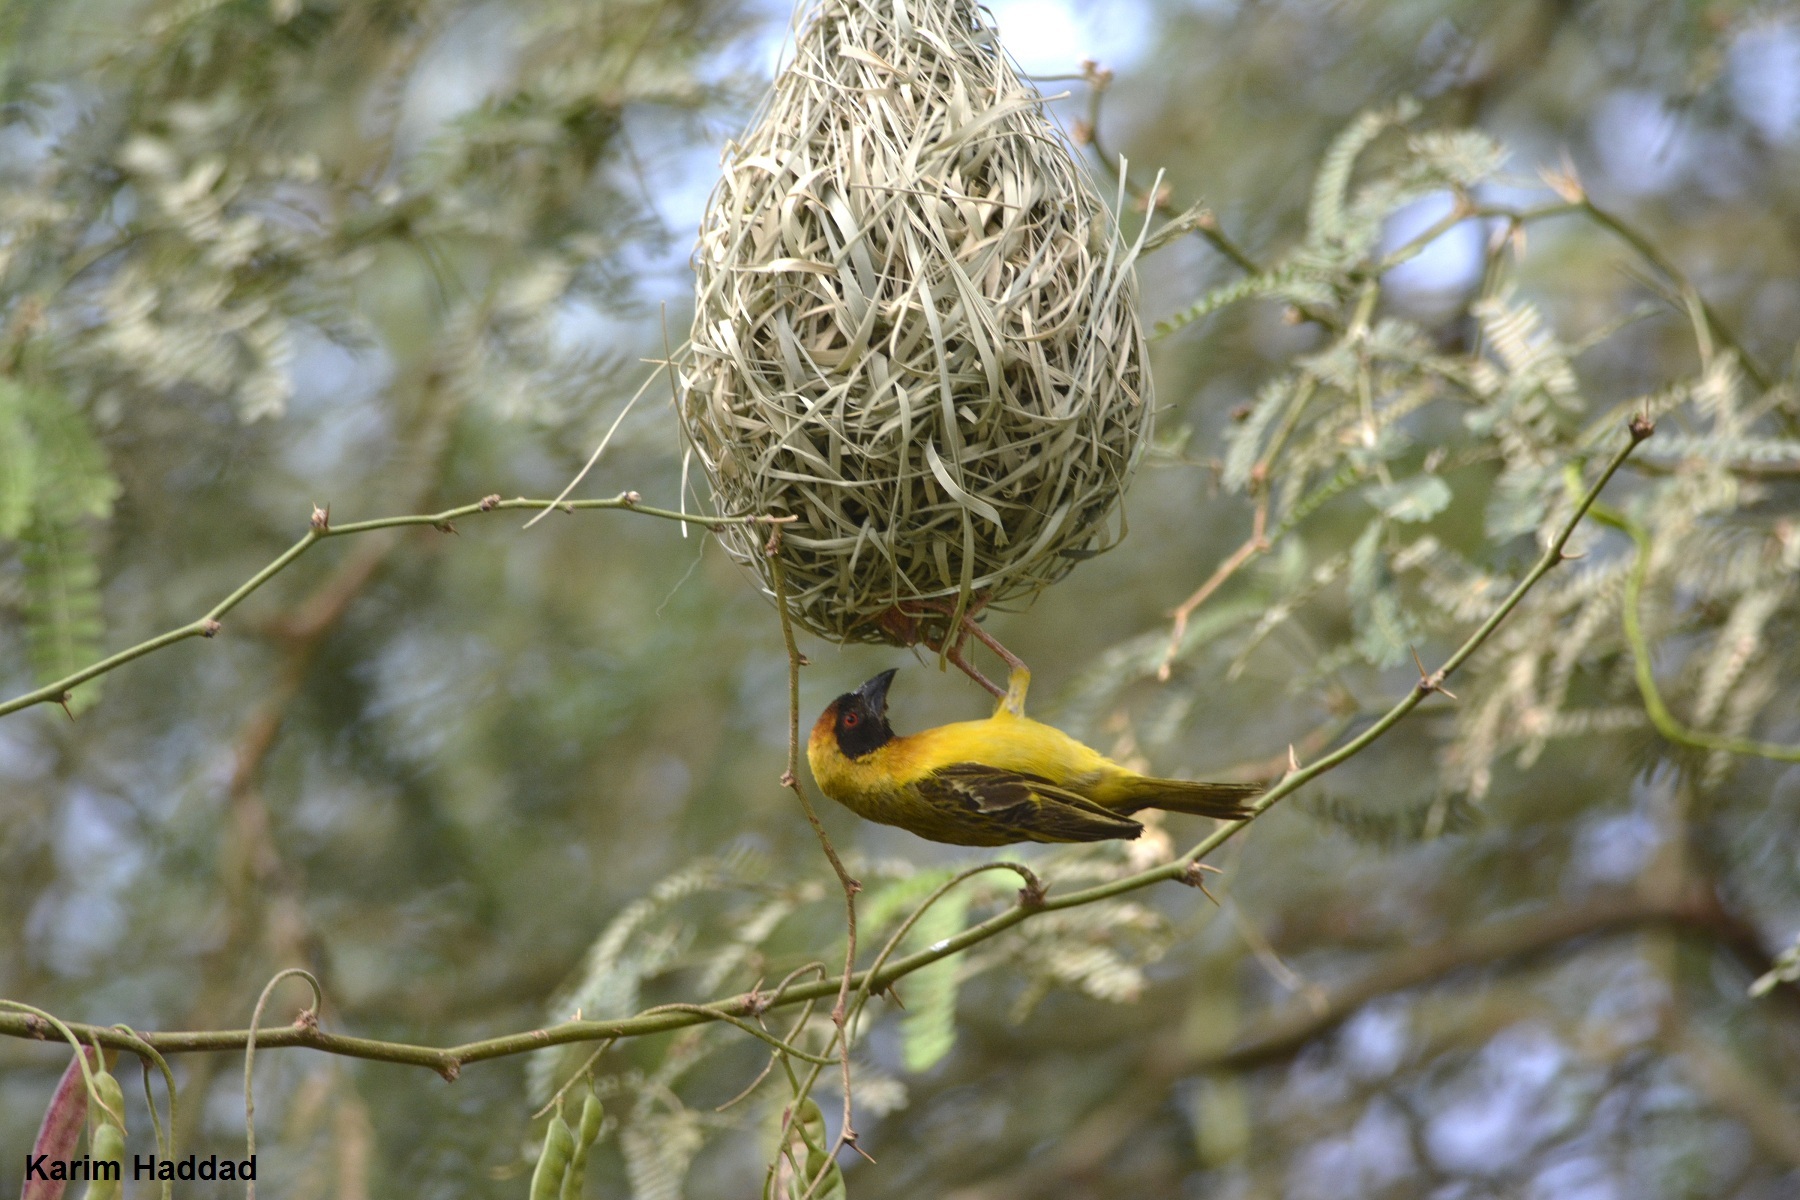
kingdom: Animalia
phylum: Chordata
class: Aves
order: Passeriformes
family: Ploceidae
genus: Ploceus
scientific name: Ploceus vitellinus
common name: Vitelline masked weaver
